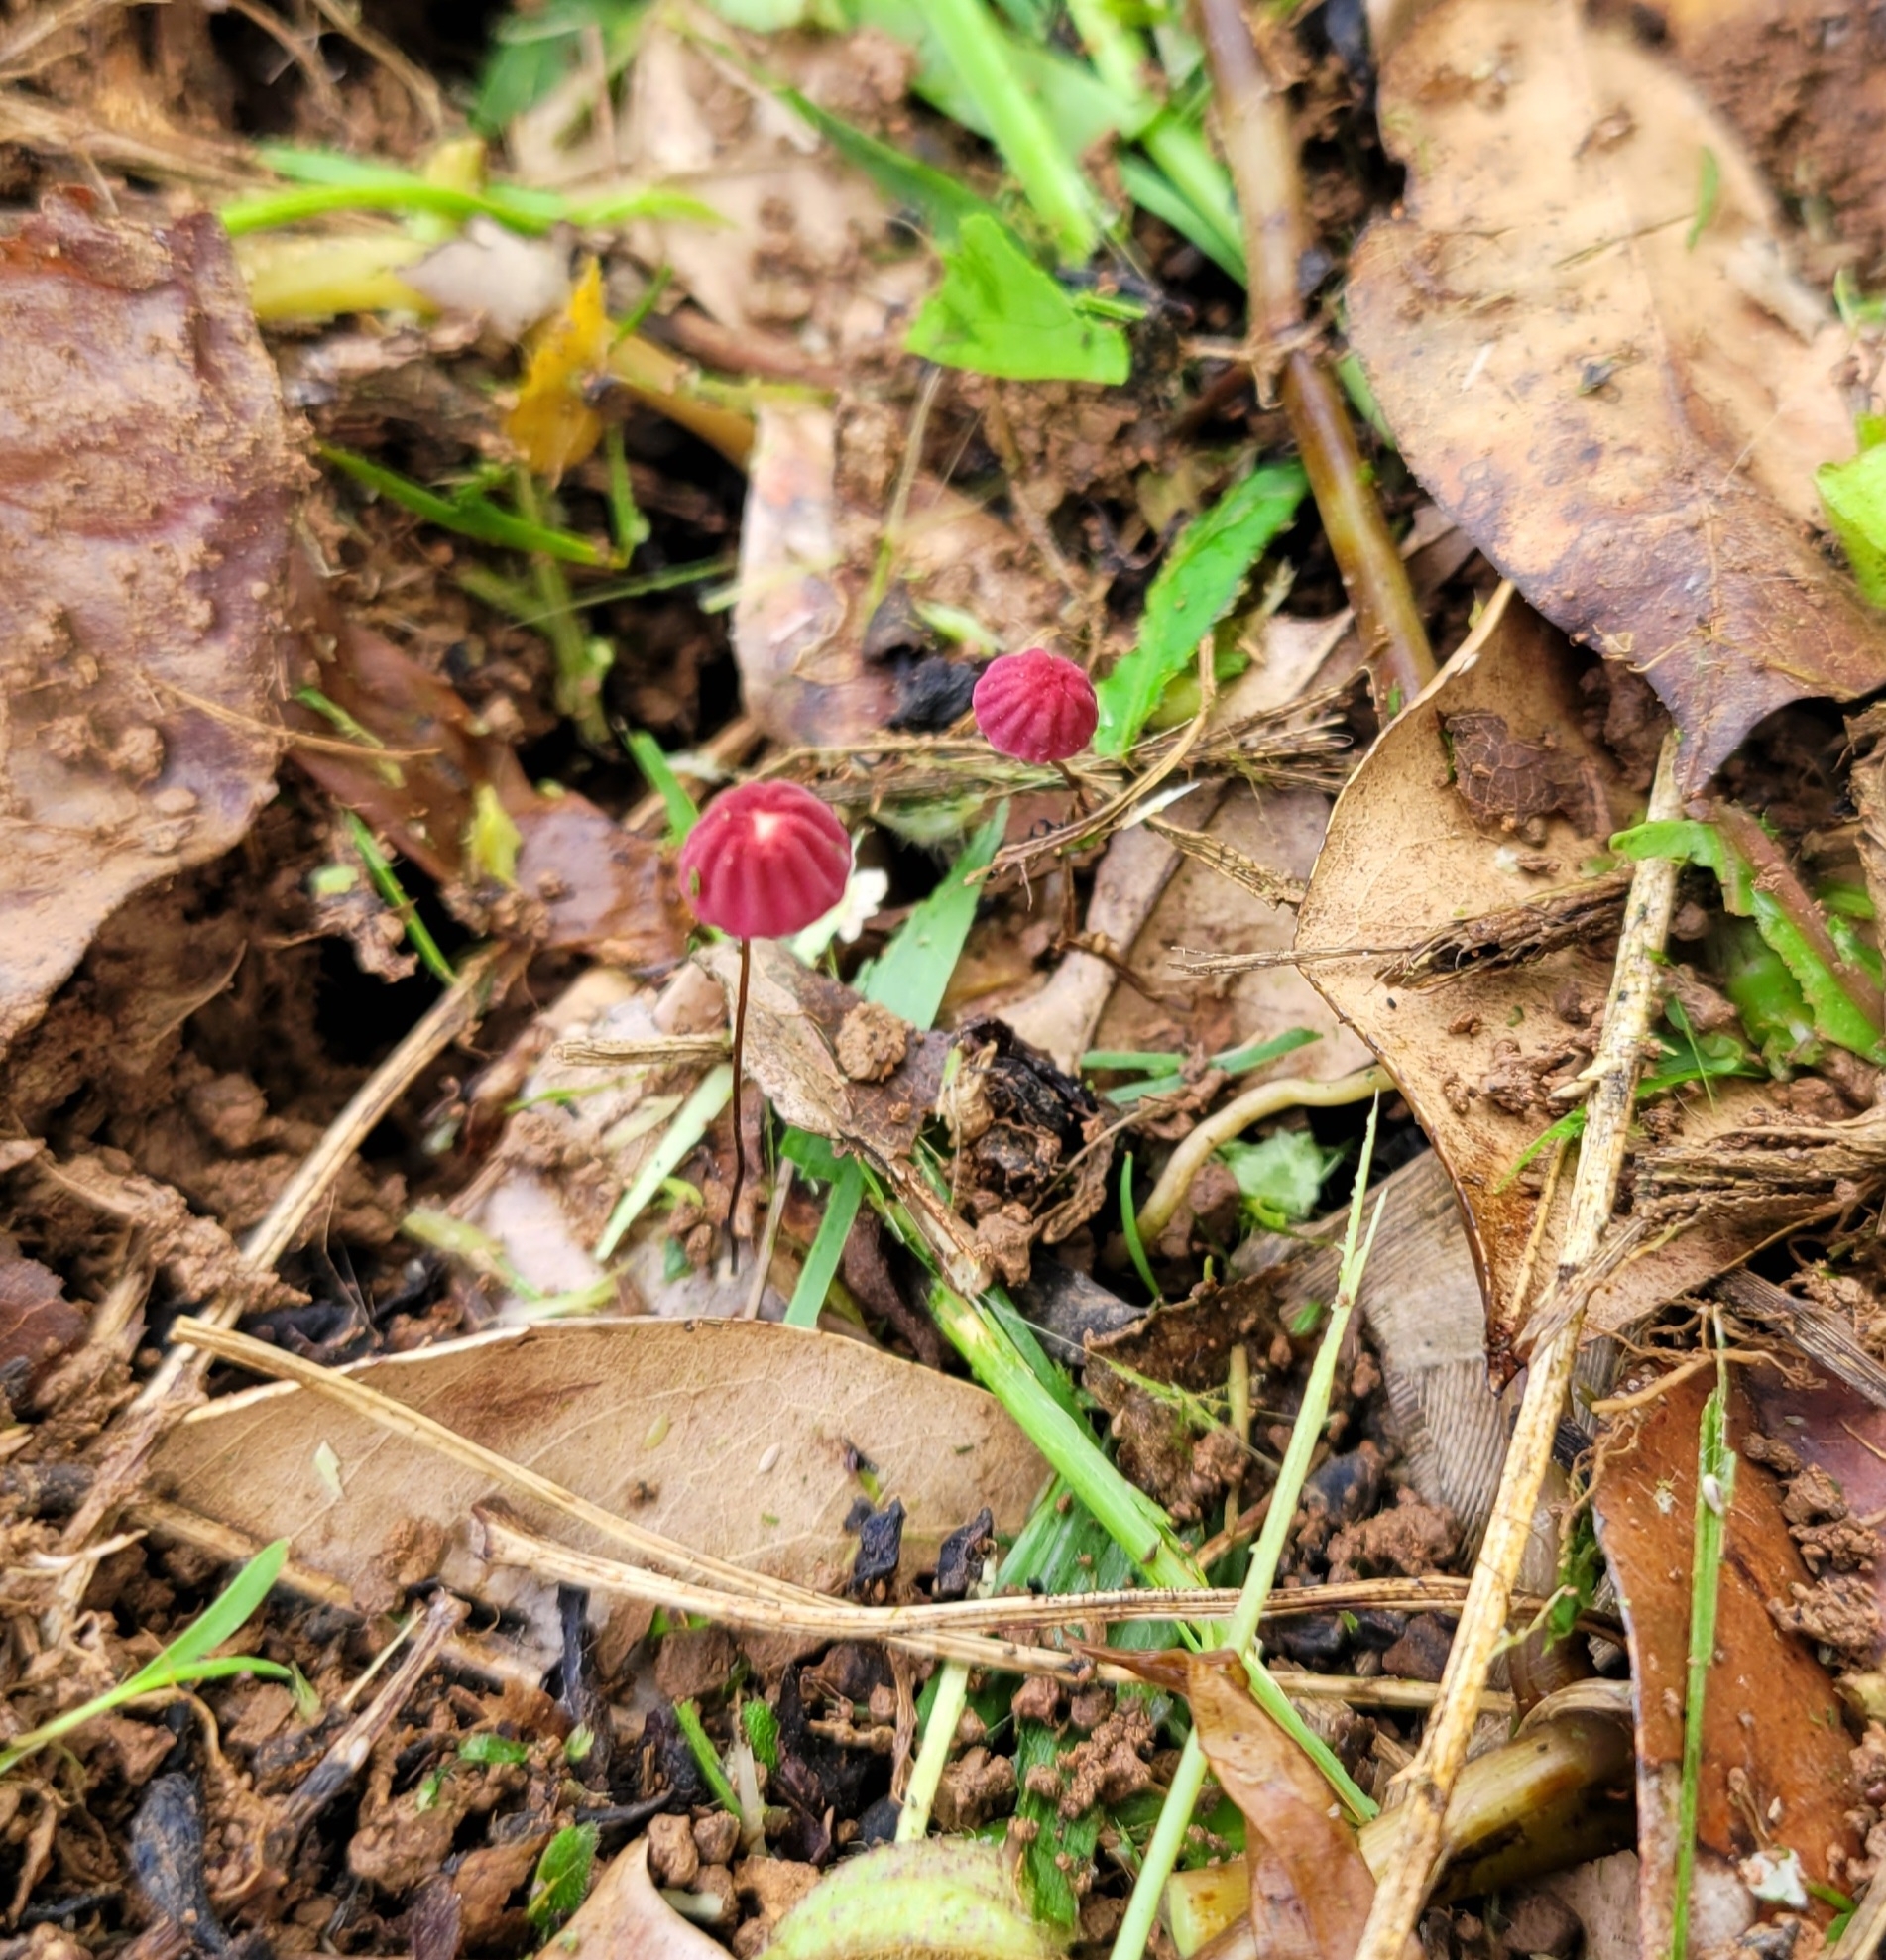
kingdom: Fungi
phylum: Basidiomycota
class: Agaricomycetes
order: Agaricales
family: Marasmiaceae
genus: Marasmius
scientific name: Marasmius haematocephalus
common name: Purple pinwheel
